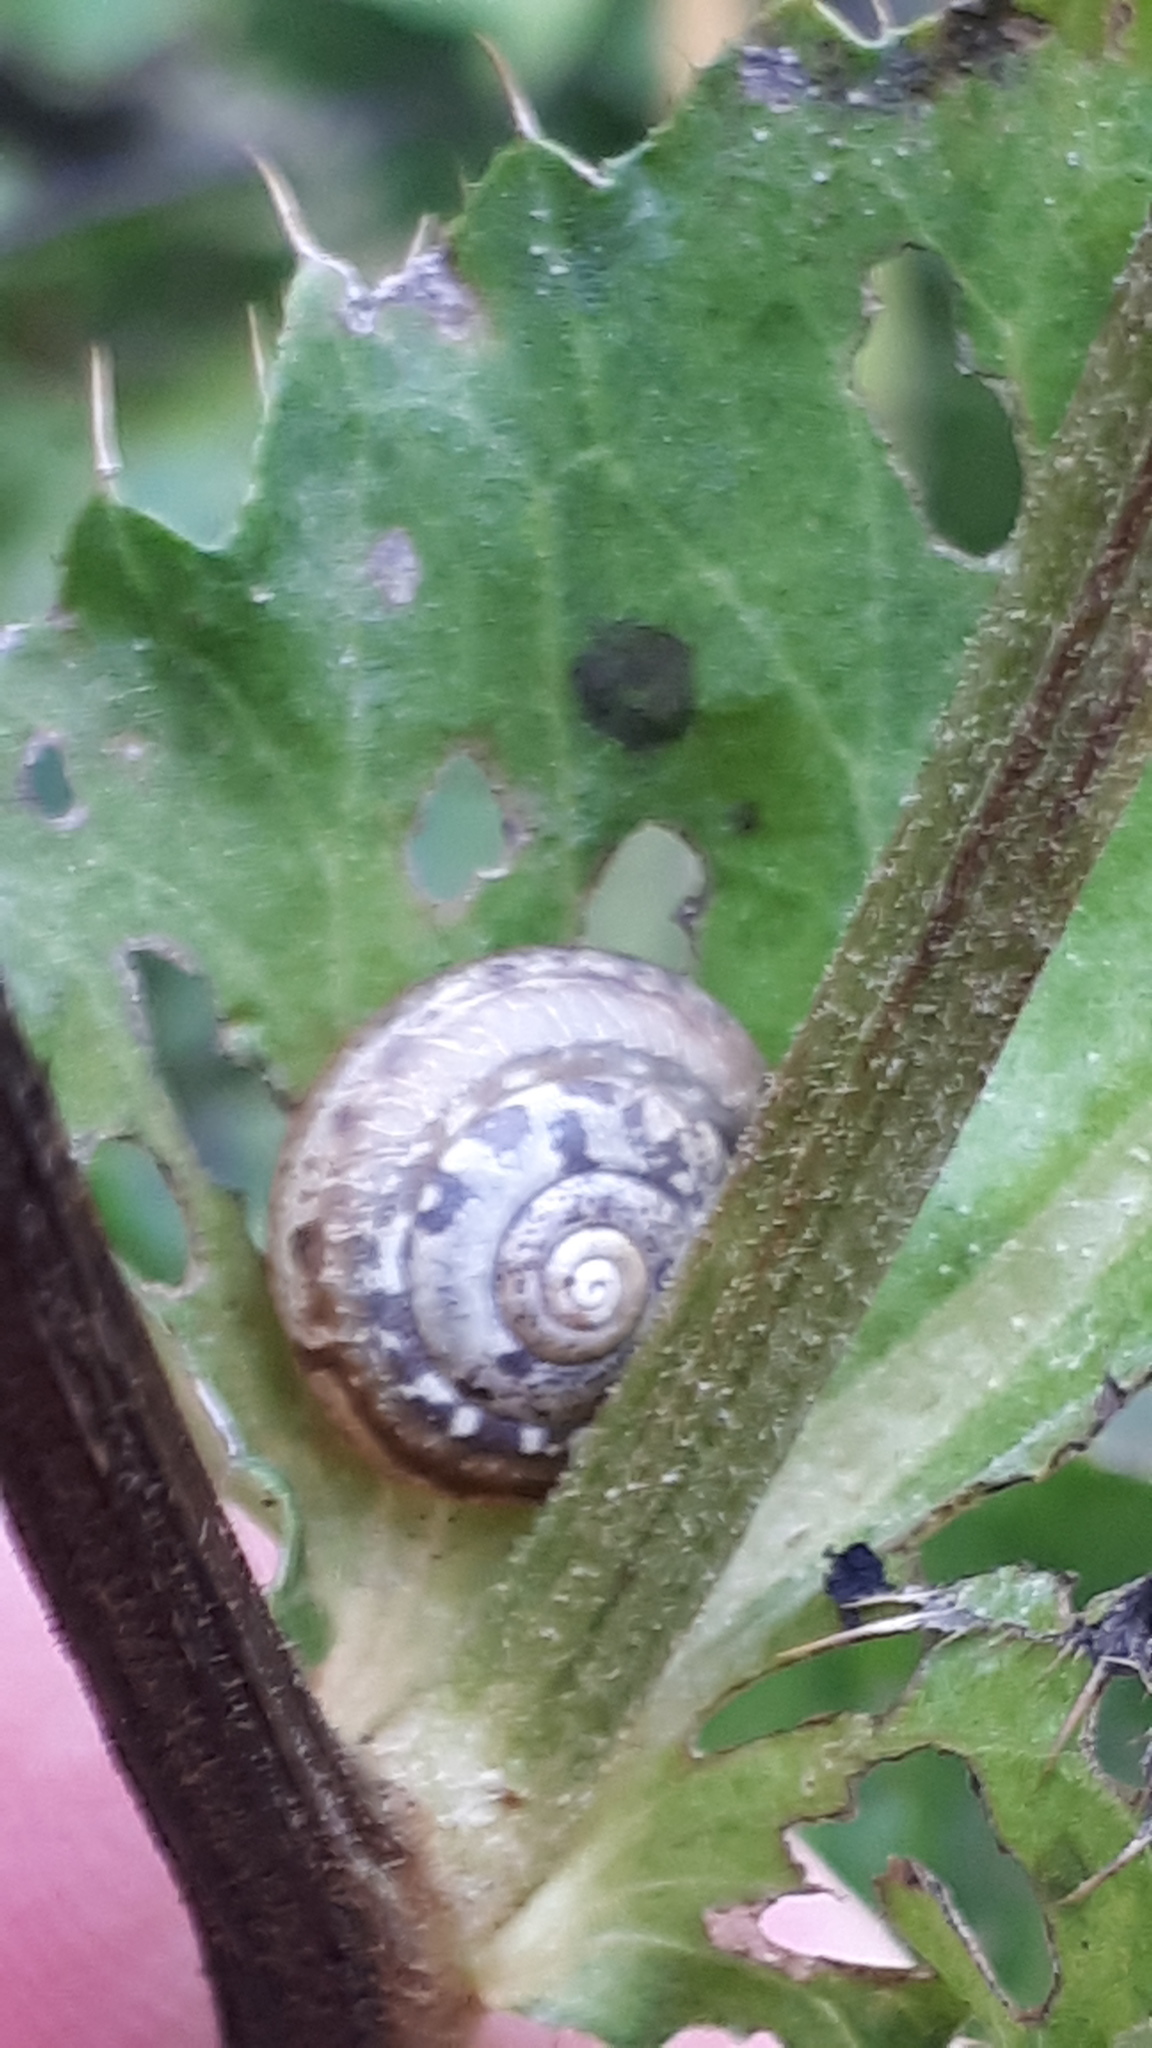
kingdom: Animalia
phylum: Mollusca
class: Gastropoda
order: Stylommatophora
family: Hygromiidae
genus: Urticicola
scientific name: Urticicola umbrosus
